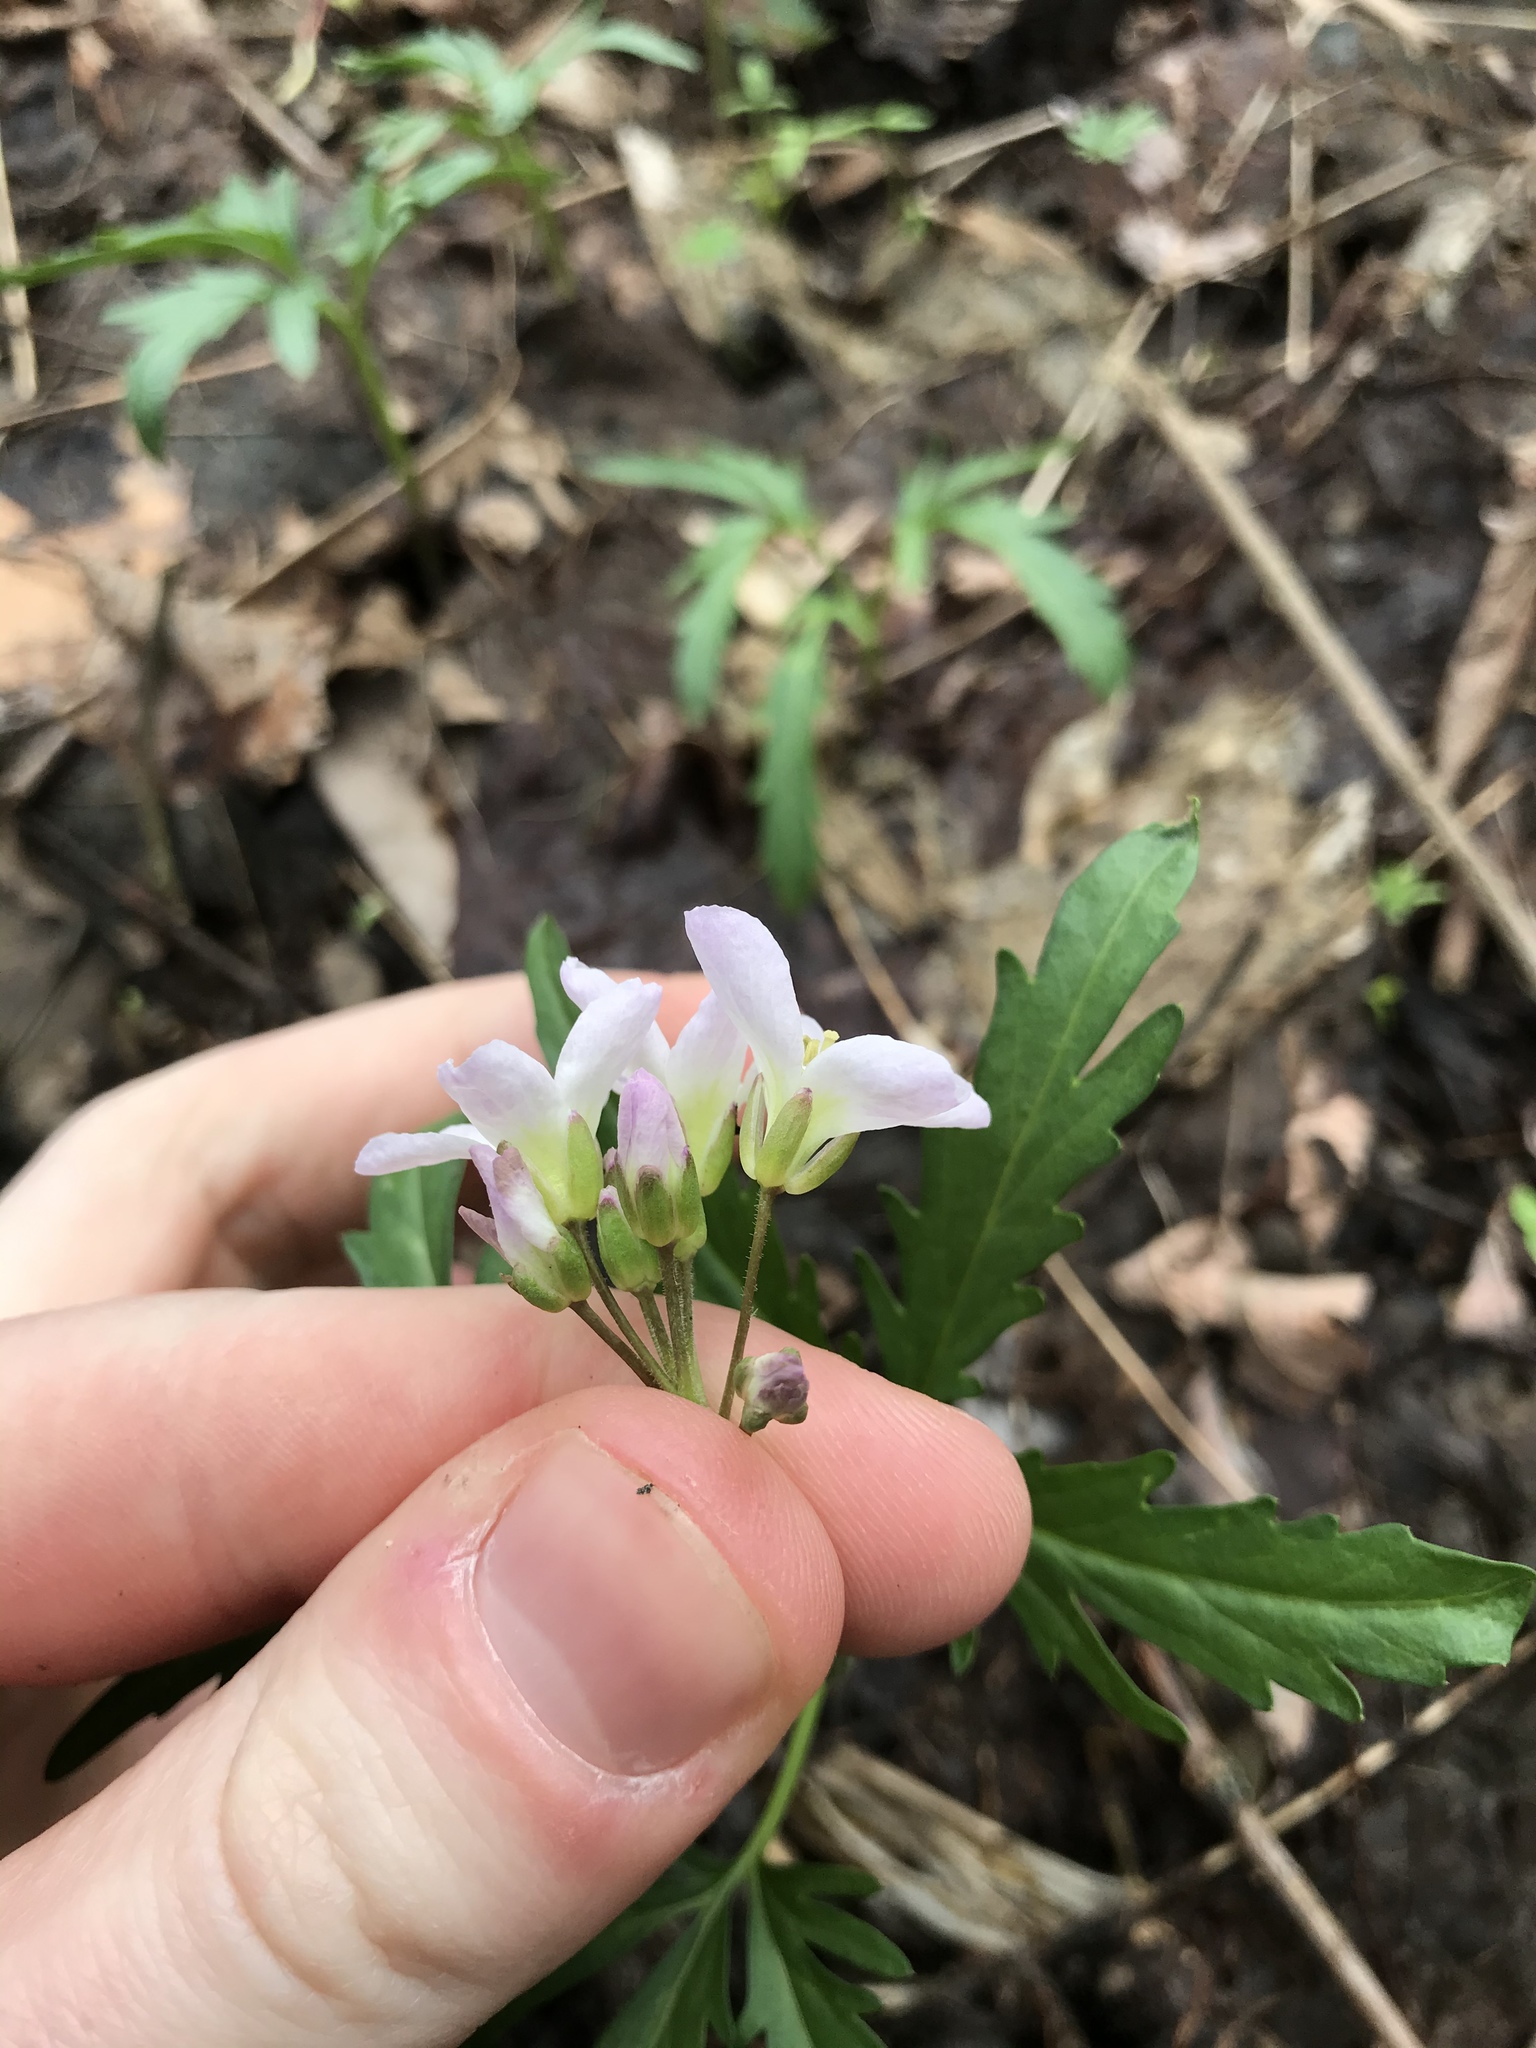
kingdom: Plantae
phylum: Tracheophyta
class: Magnoliopsida
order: Brassicales
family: Brassicaceae
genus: Cardamine
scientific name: Cardamine concatenata
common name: Cut-leaf toothcup
